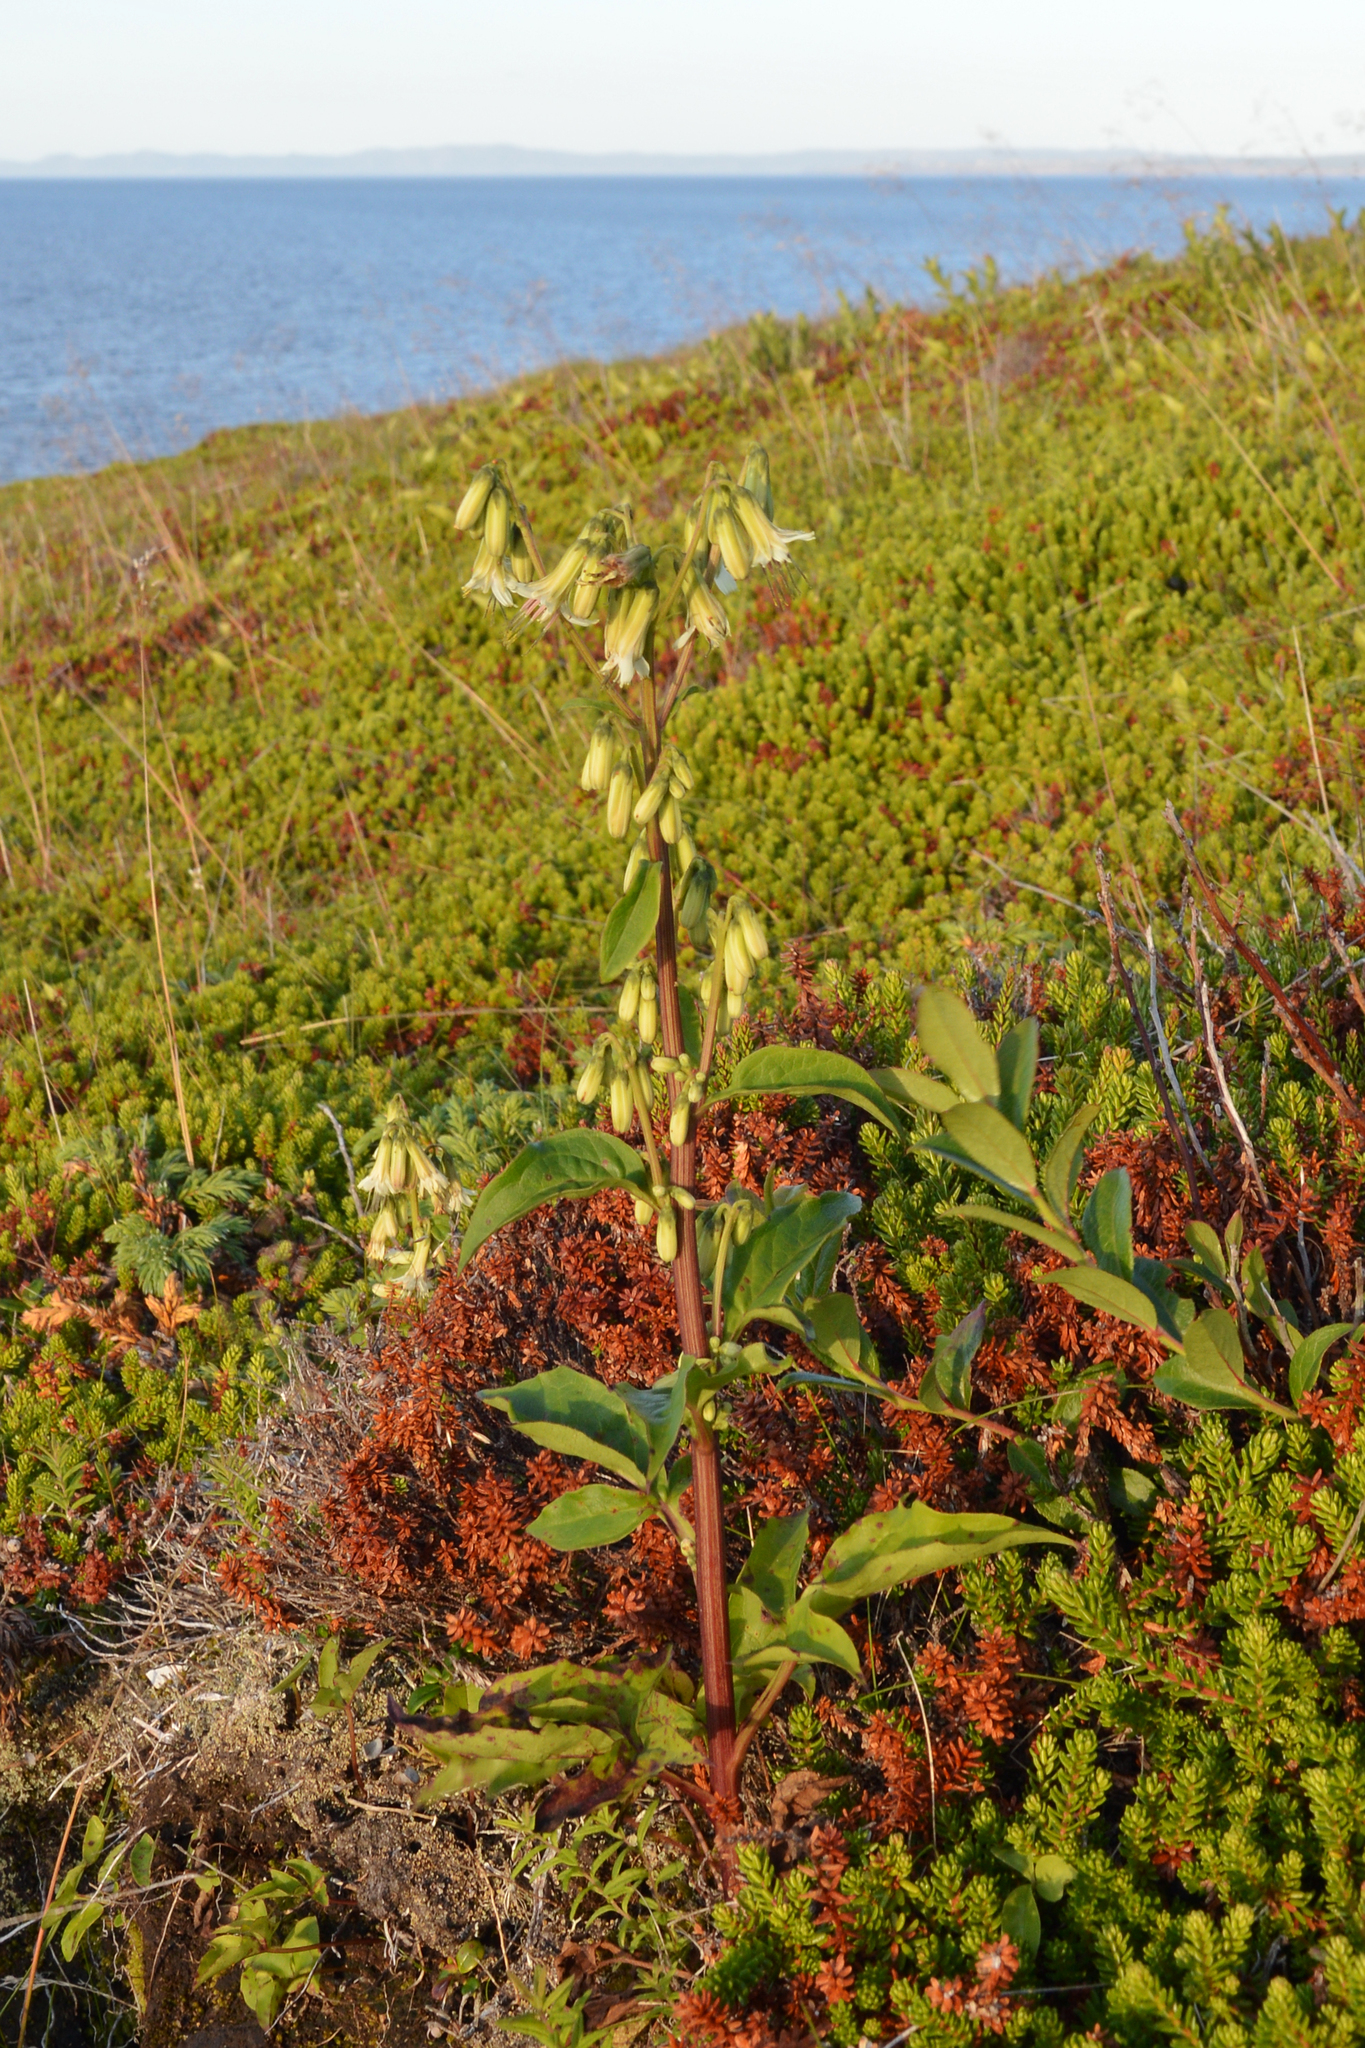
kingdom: Plantae
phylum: Tracheophyta
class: Magnoliopsida
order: Asterales
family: Asteraceae
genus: Nabalus
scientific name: Nabalus trifoliolatus
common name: Gall-of-the-earth
